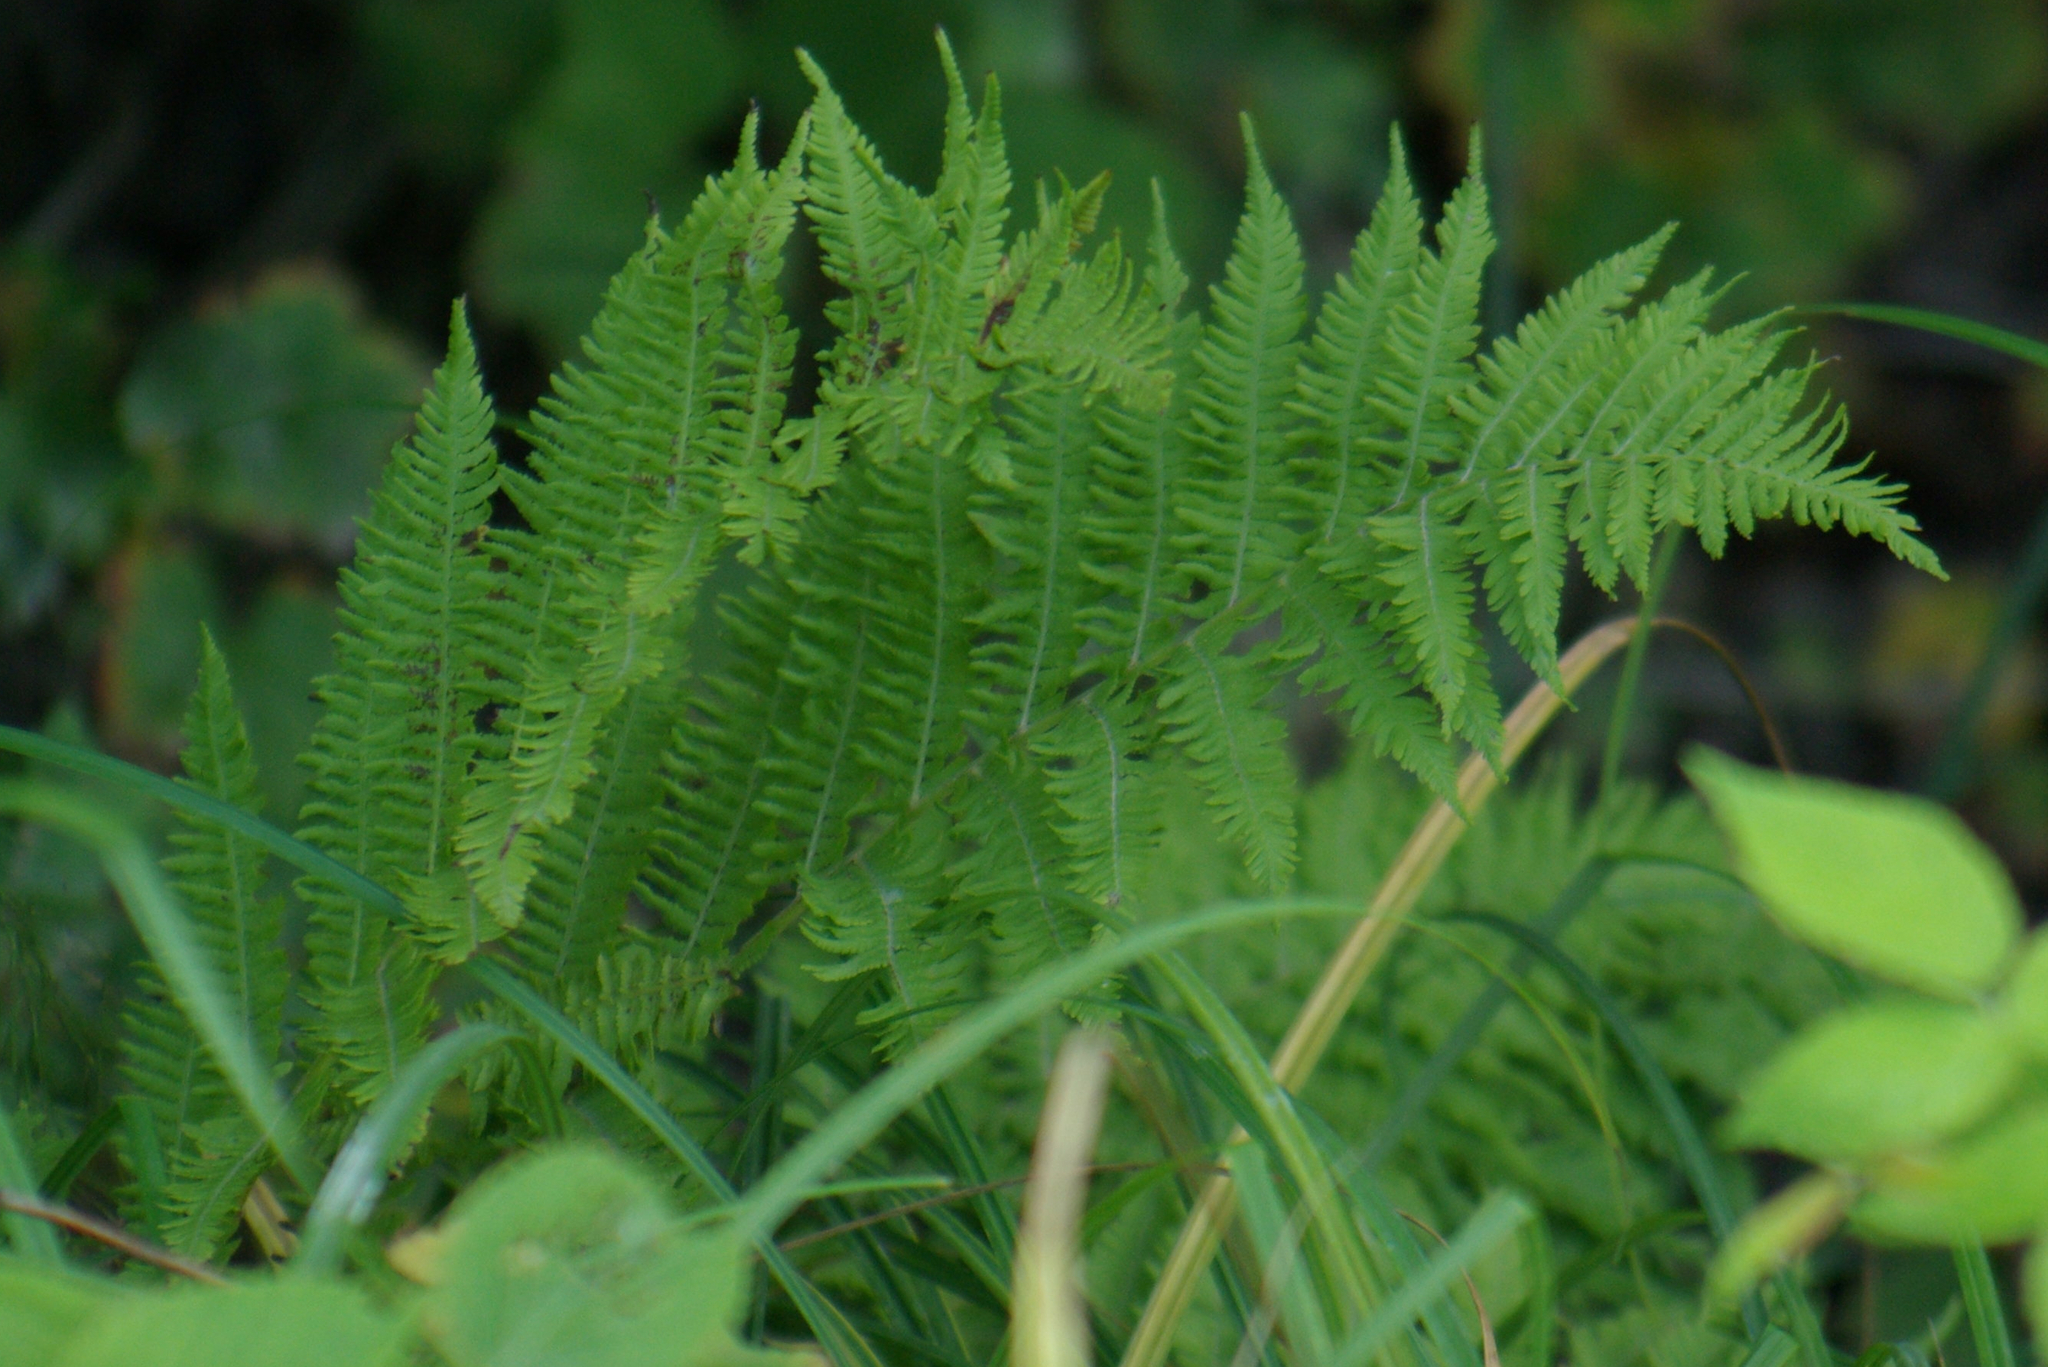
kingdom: Plantae
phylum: Tracheophyta
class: Polypodiopsida
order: Polypodiales
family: Athyriaceae
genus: Athyrium
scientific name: Athyrium angustum
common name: Northern lady fern
